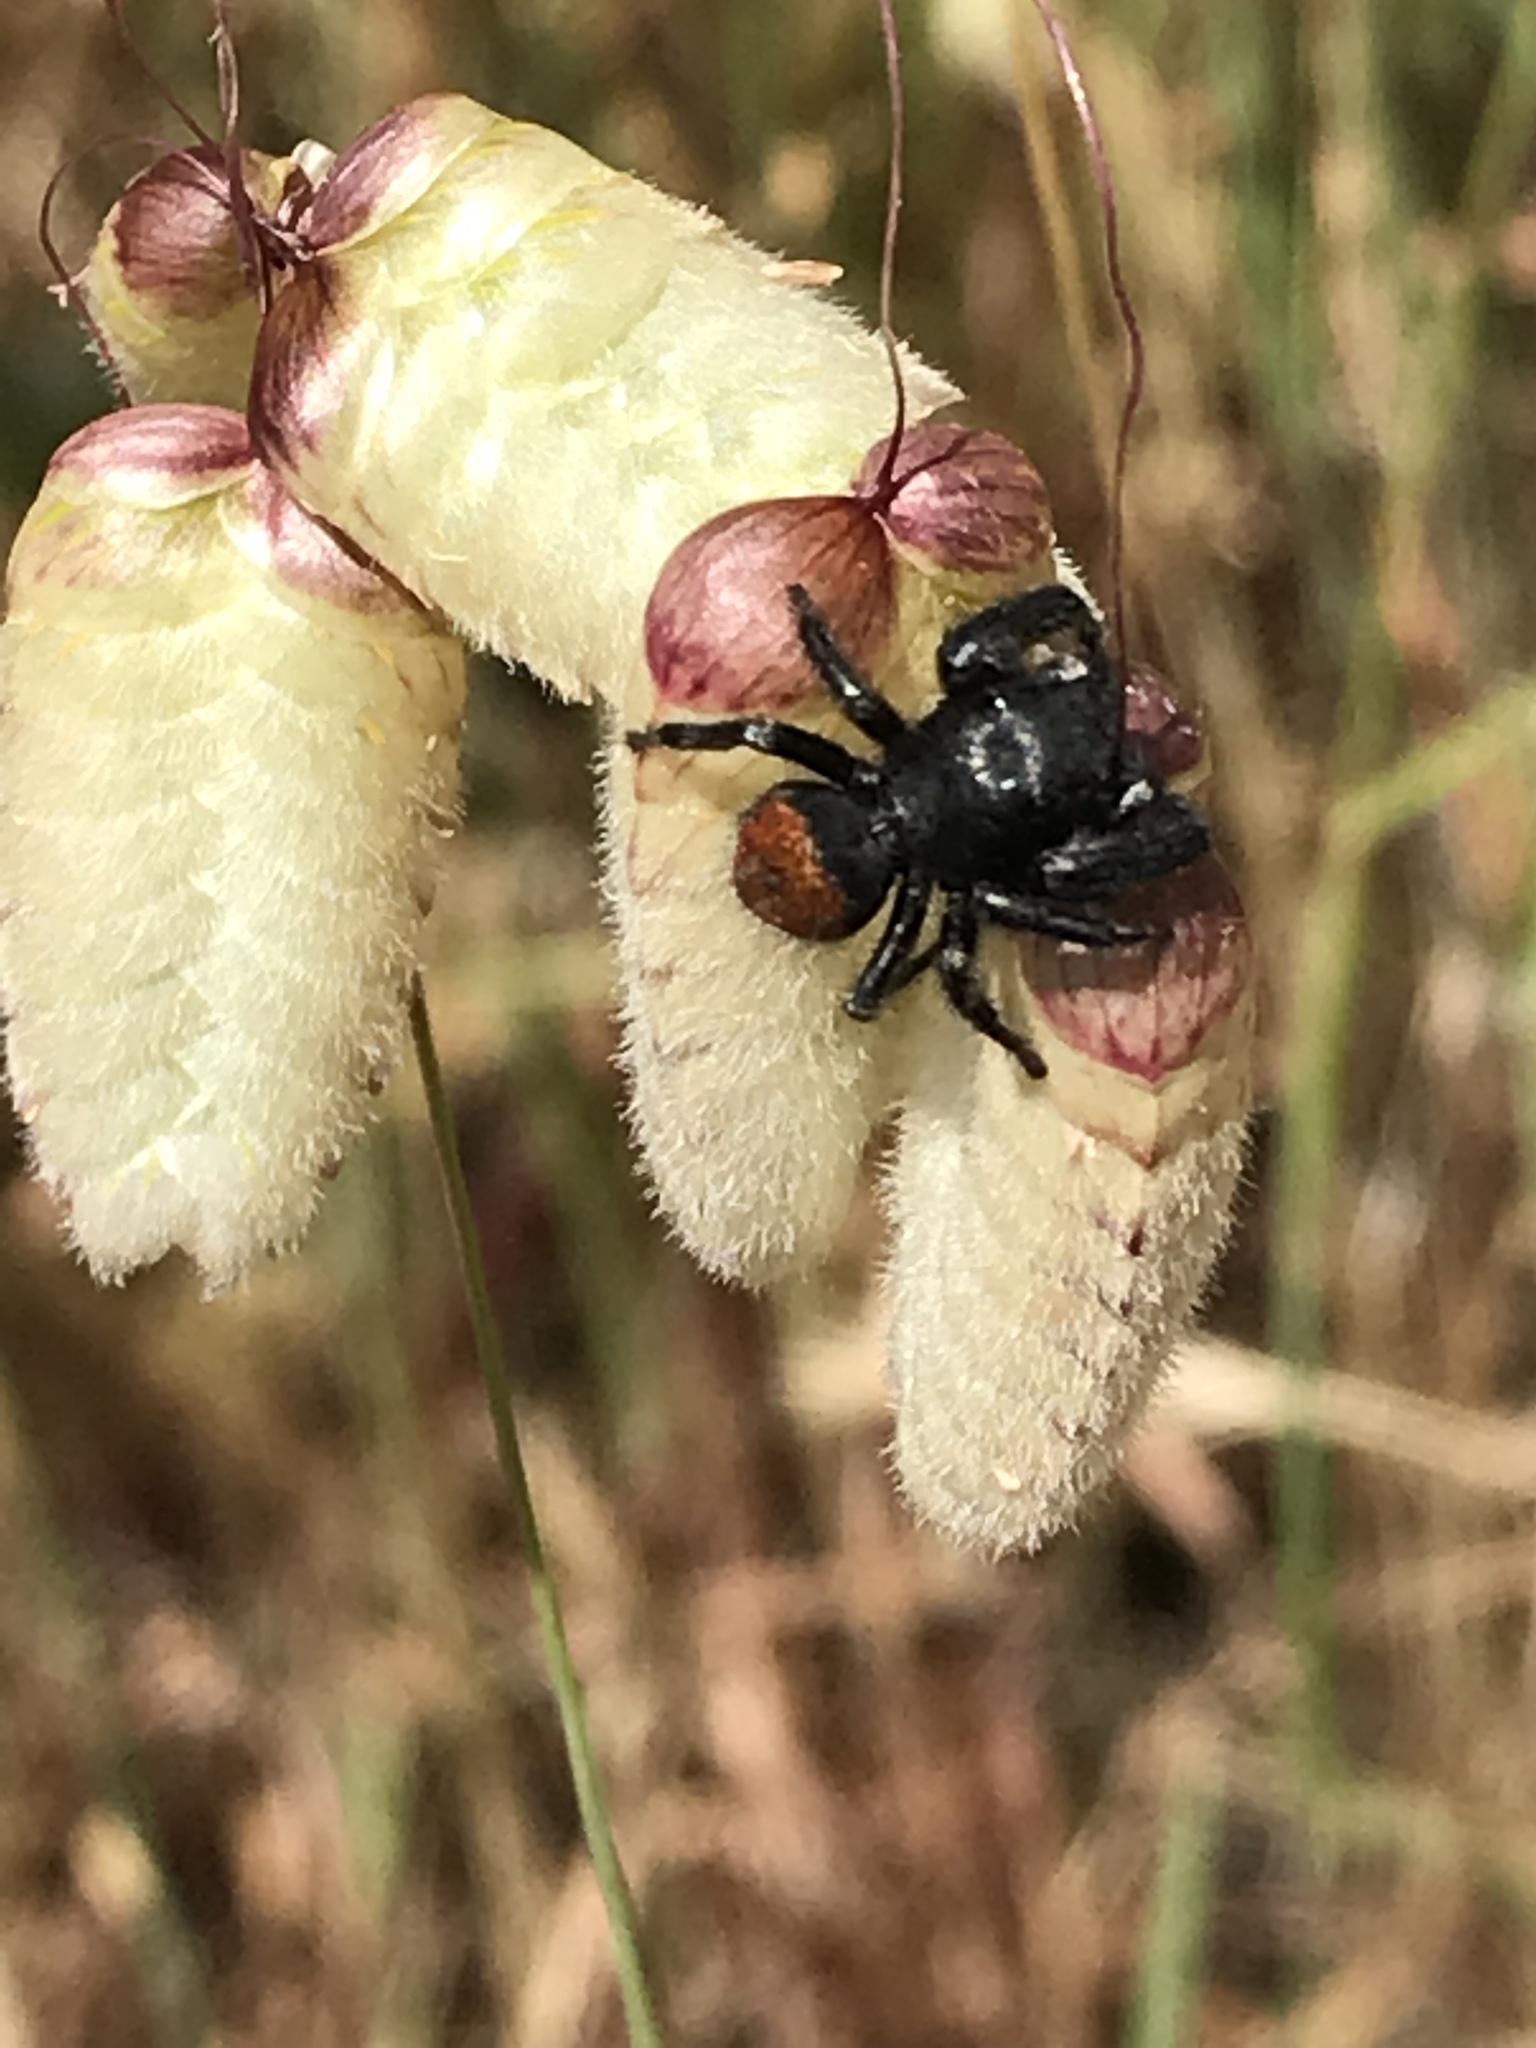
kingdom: Animalia
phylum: Arthropoda
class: Arachnida
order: Araneae
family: Salticidae
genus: Phidippus
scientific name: Phidippus johnsoni
